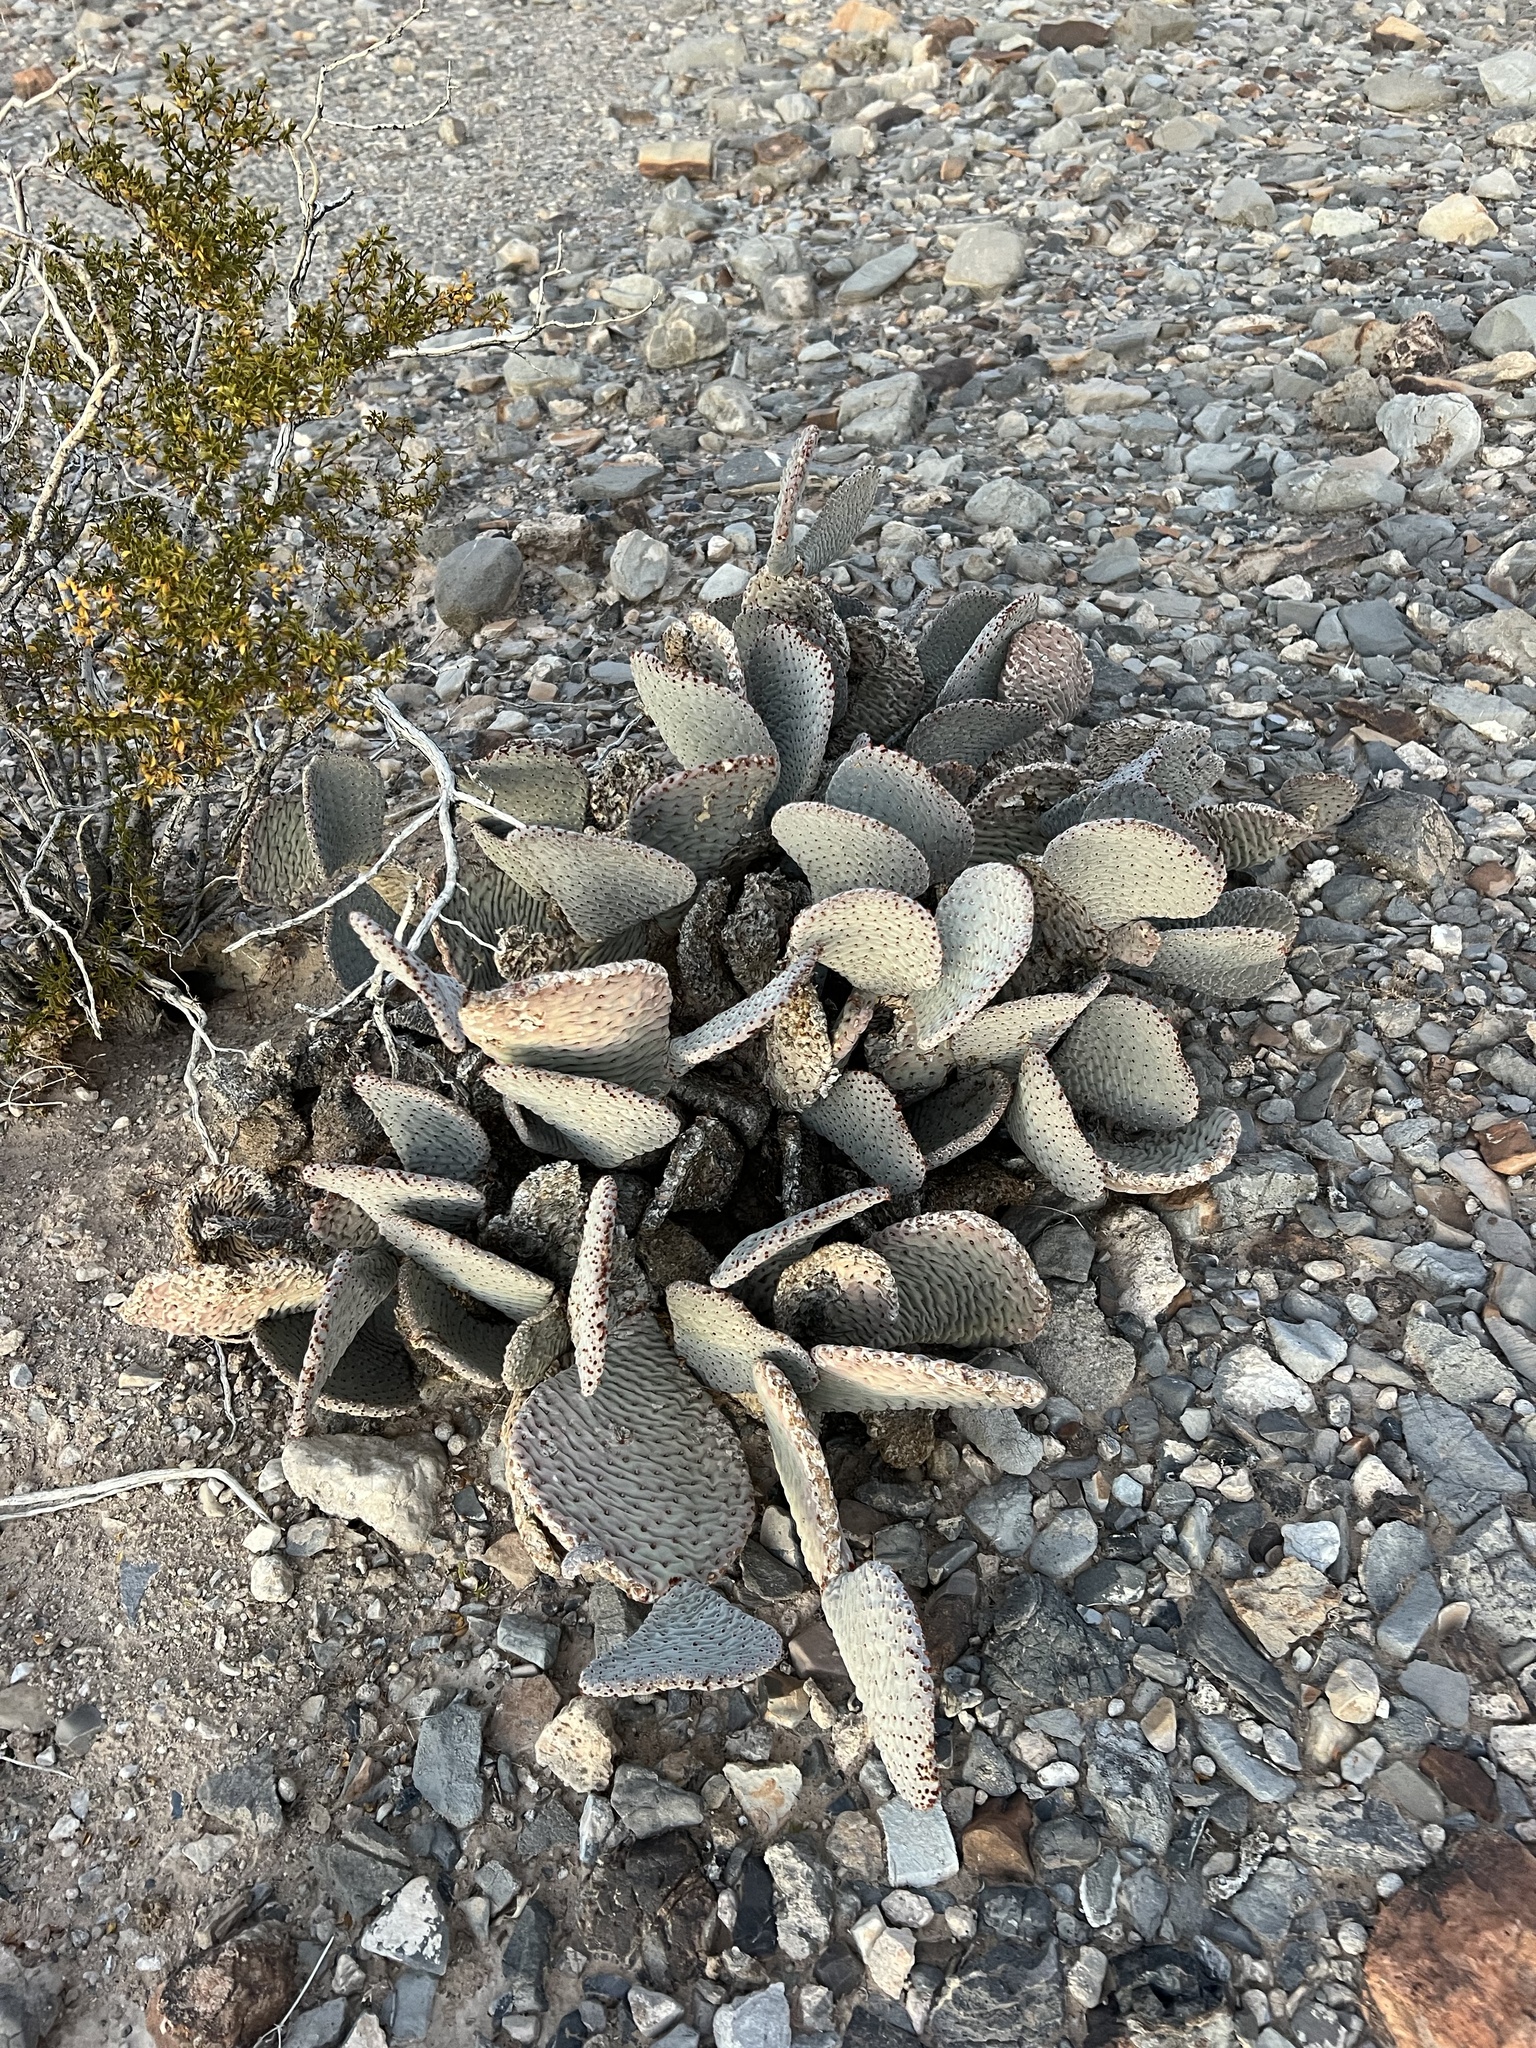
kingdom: Plantae
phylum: Tracheophyta
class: Magnoliopsida
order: Caryophyllales
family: Cactaceae
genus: Opuntia
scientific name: Opuntia basilaris
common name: Beavertail prickly-pear
